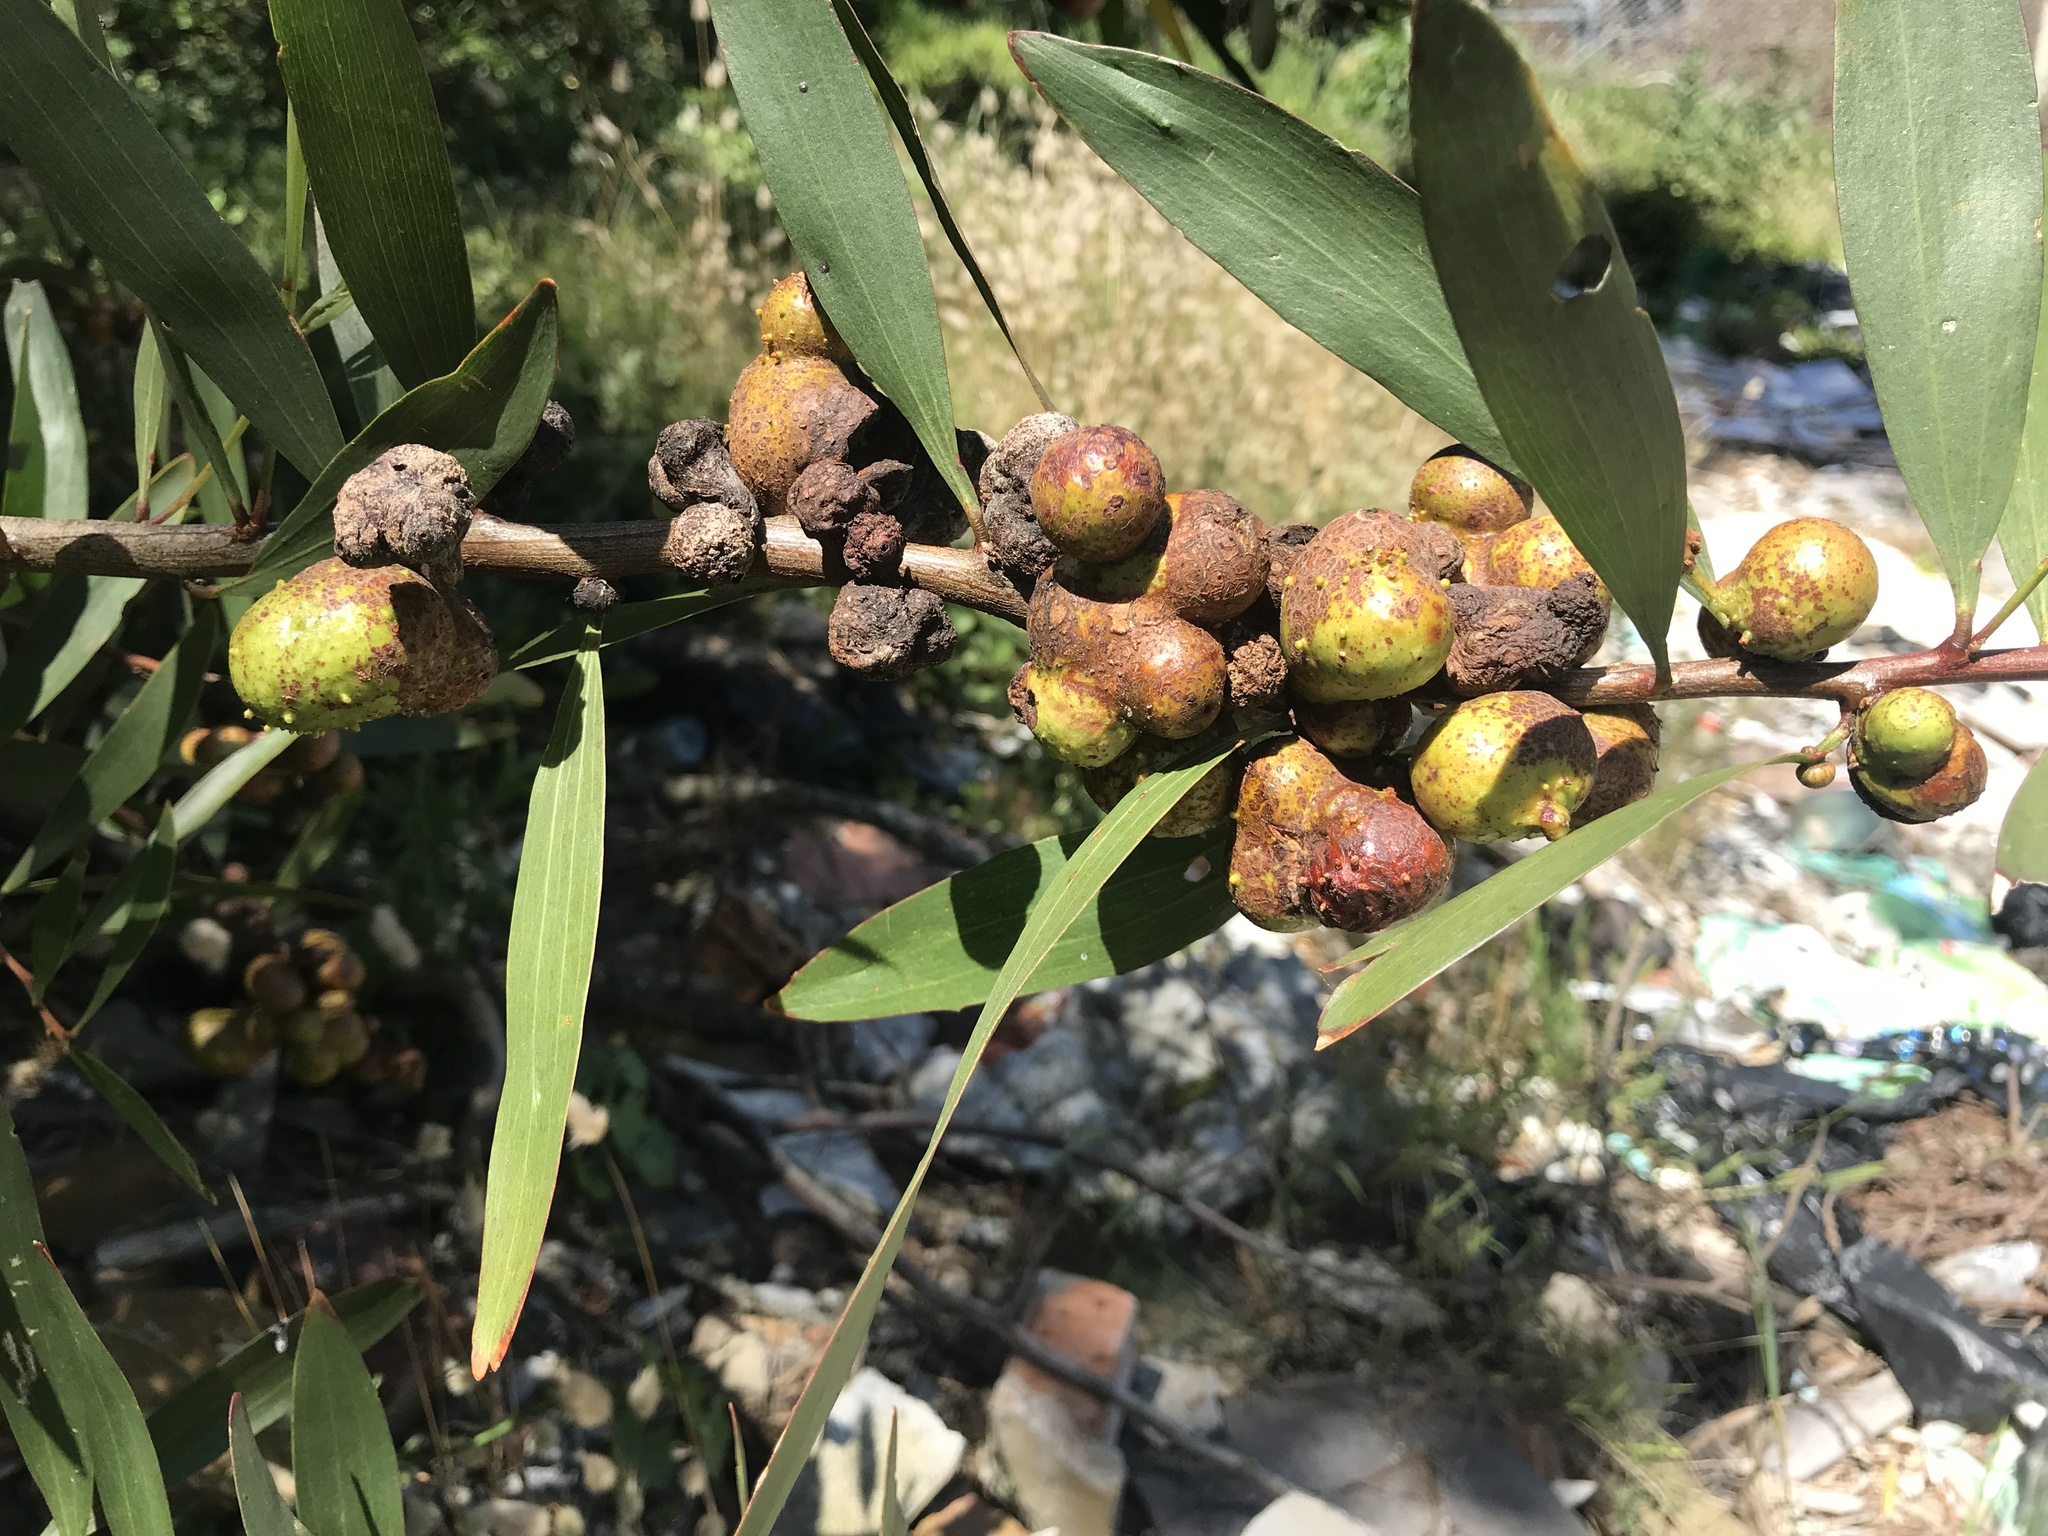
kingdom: Animalia
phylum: Arthropoda
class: Insecta
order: Hymenoptera
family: Pteromalidae
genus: Trichilogaster
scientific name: Trichilogaster acaciaelongifoliae
